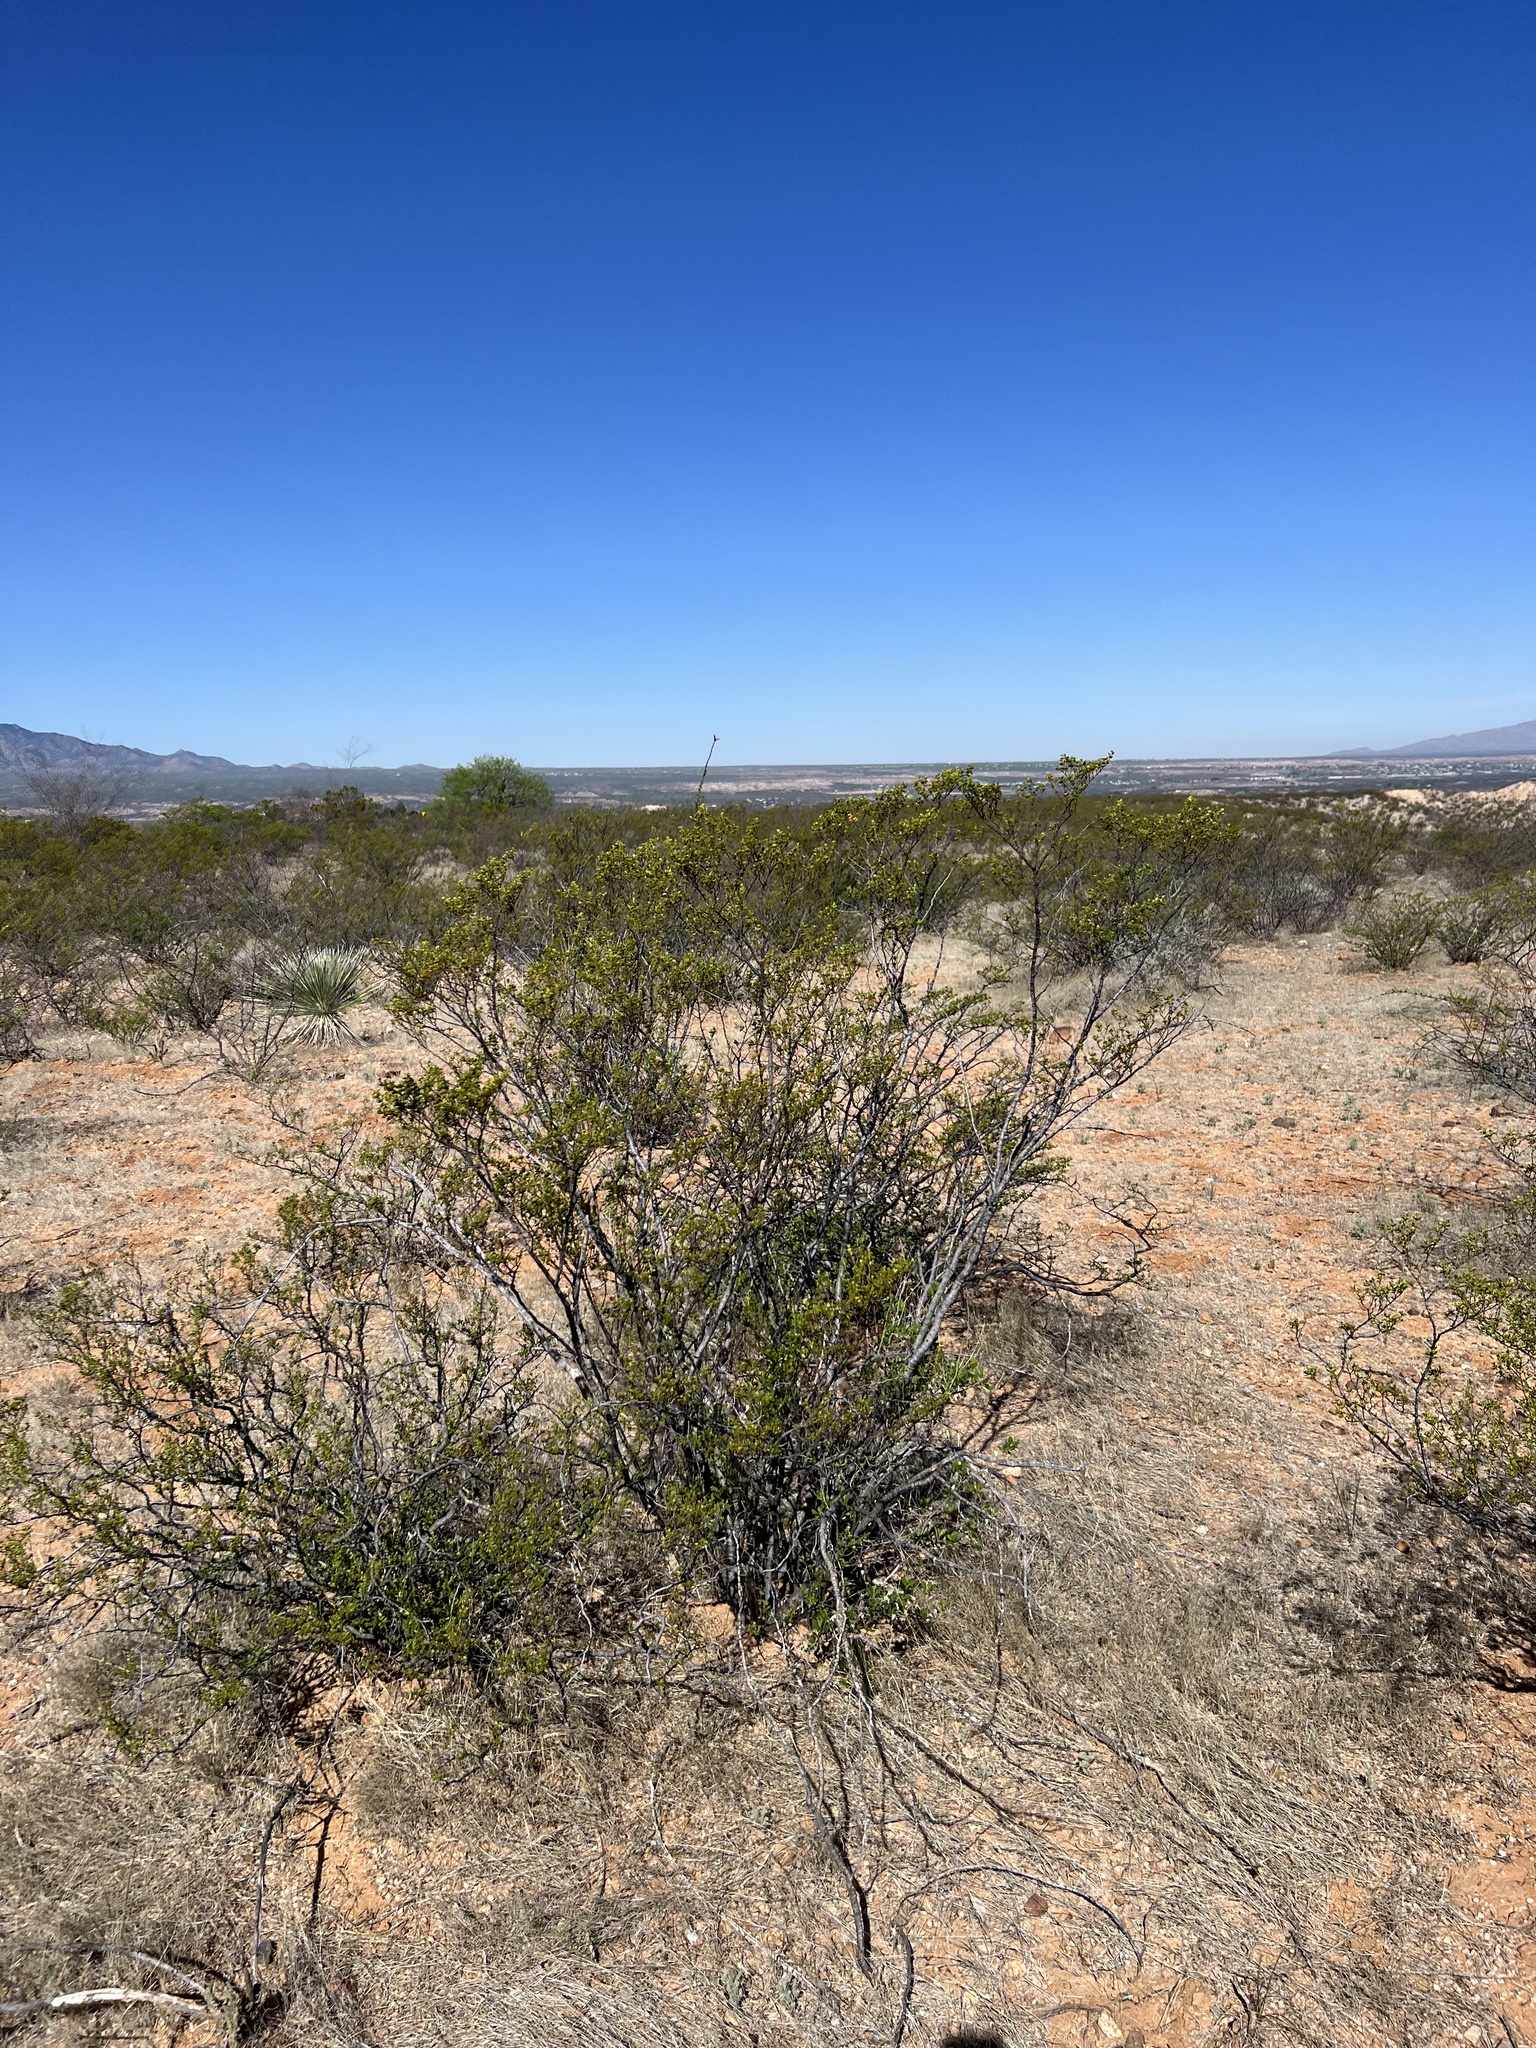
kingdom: Plantae
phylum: Tracheophyta
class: Magnoliopsida
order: Zygophyllales
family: Zygophyllaceae
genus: Larrea
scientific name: Larrea tridentata
